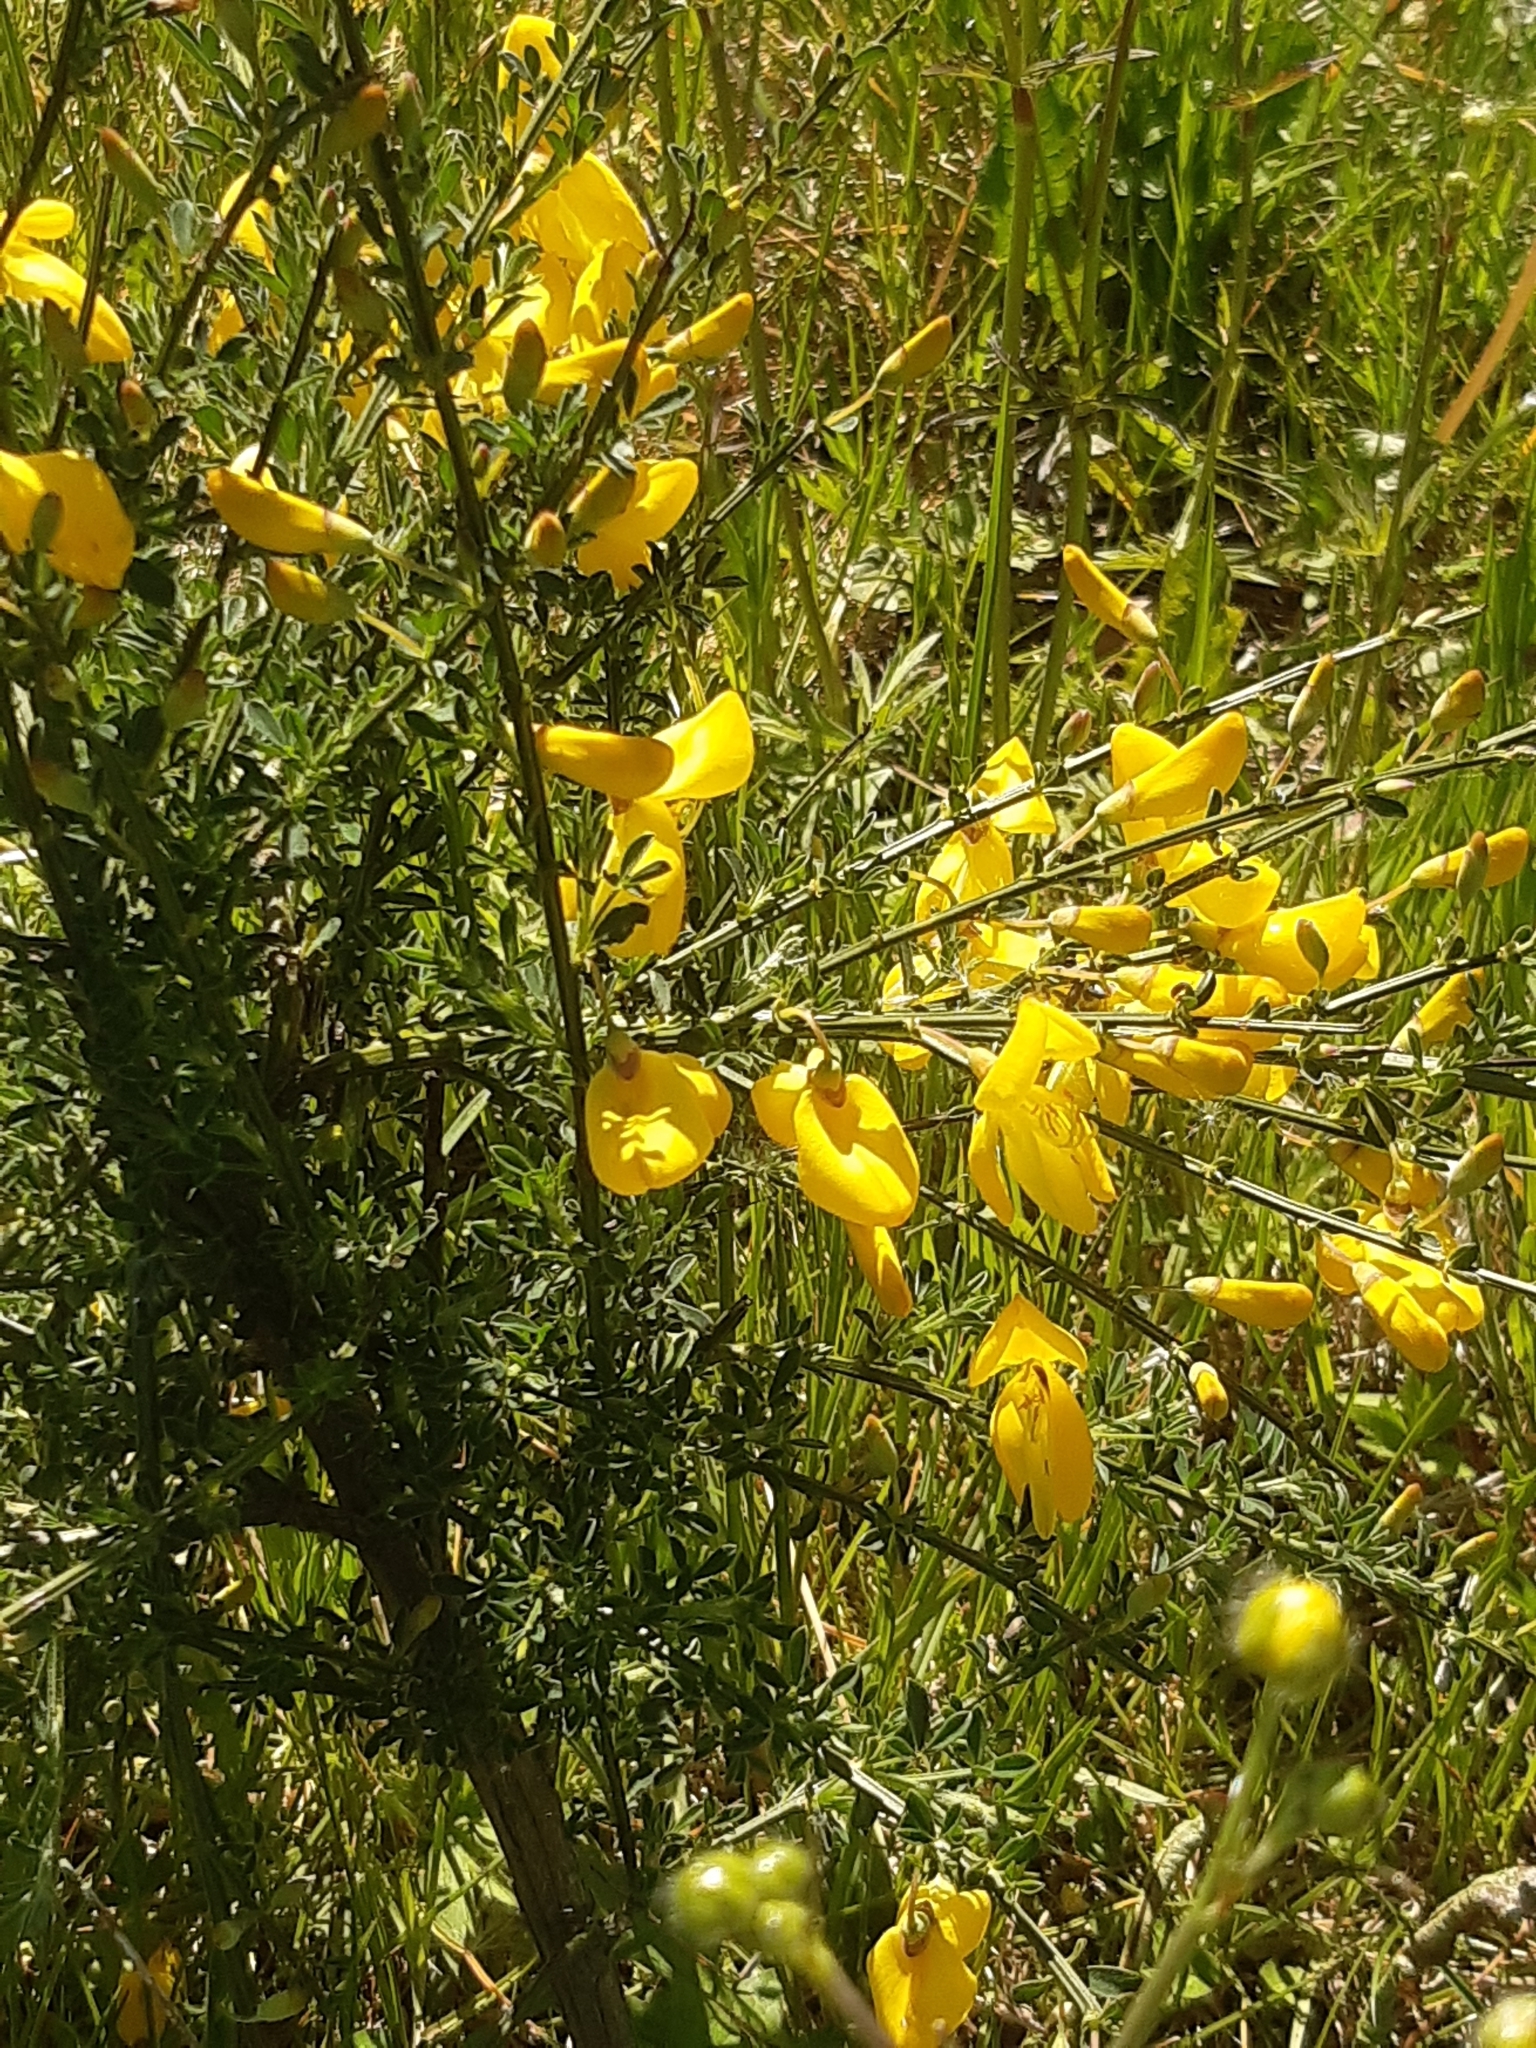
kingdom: Plantae
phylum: Tracheophyta
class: Magnoliopsida
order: Fabales
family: Fabaceae
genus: Cytisus
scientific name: Cytisus scoparius
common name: Scotch broom
